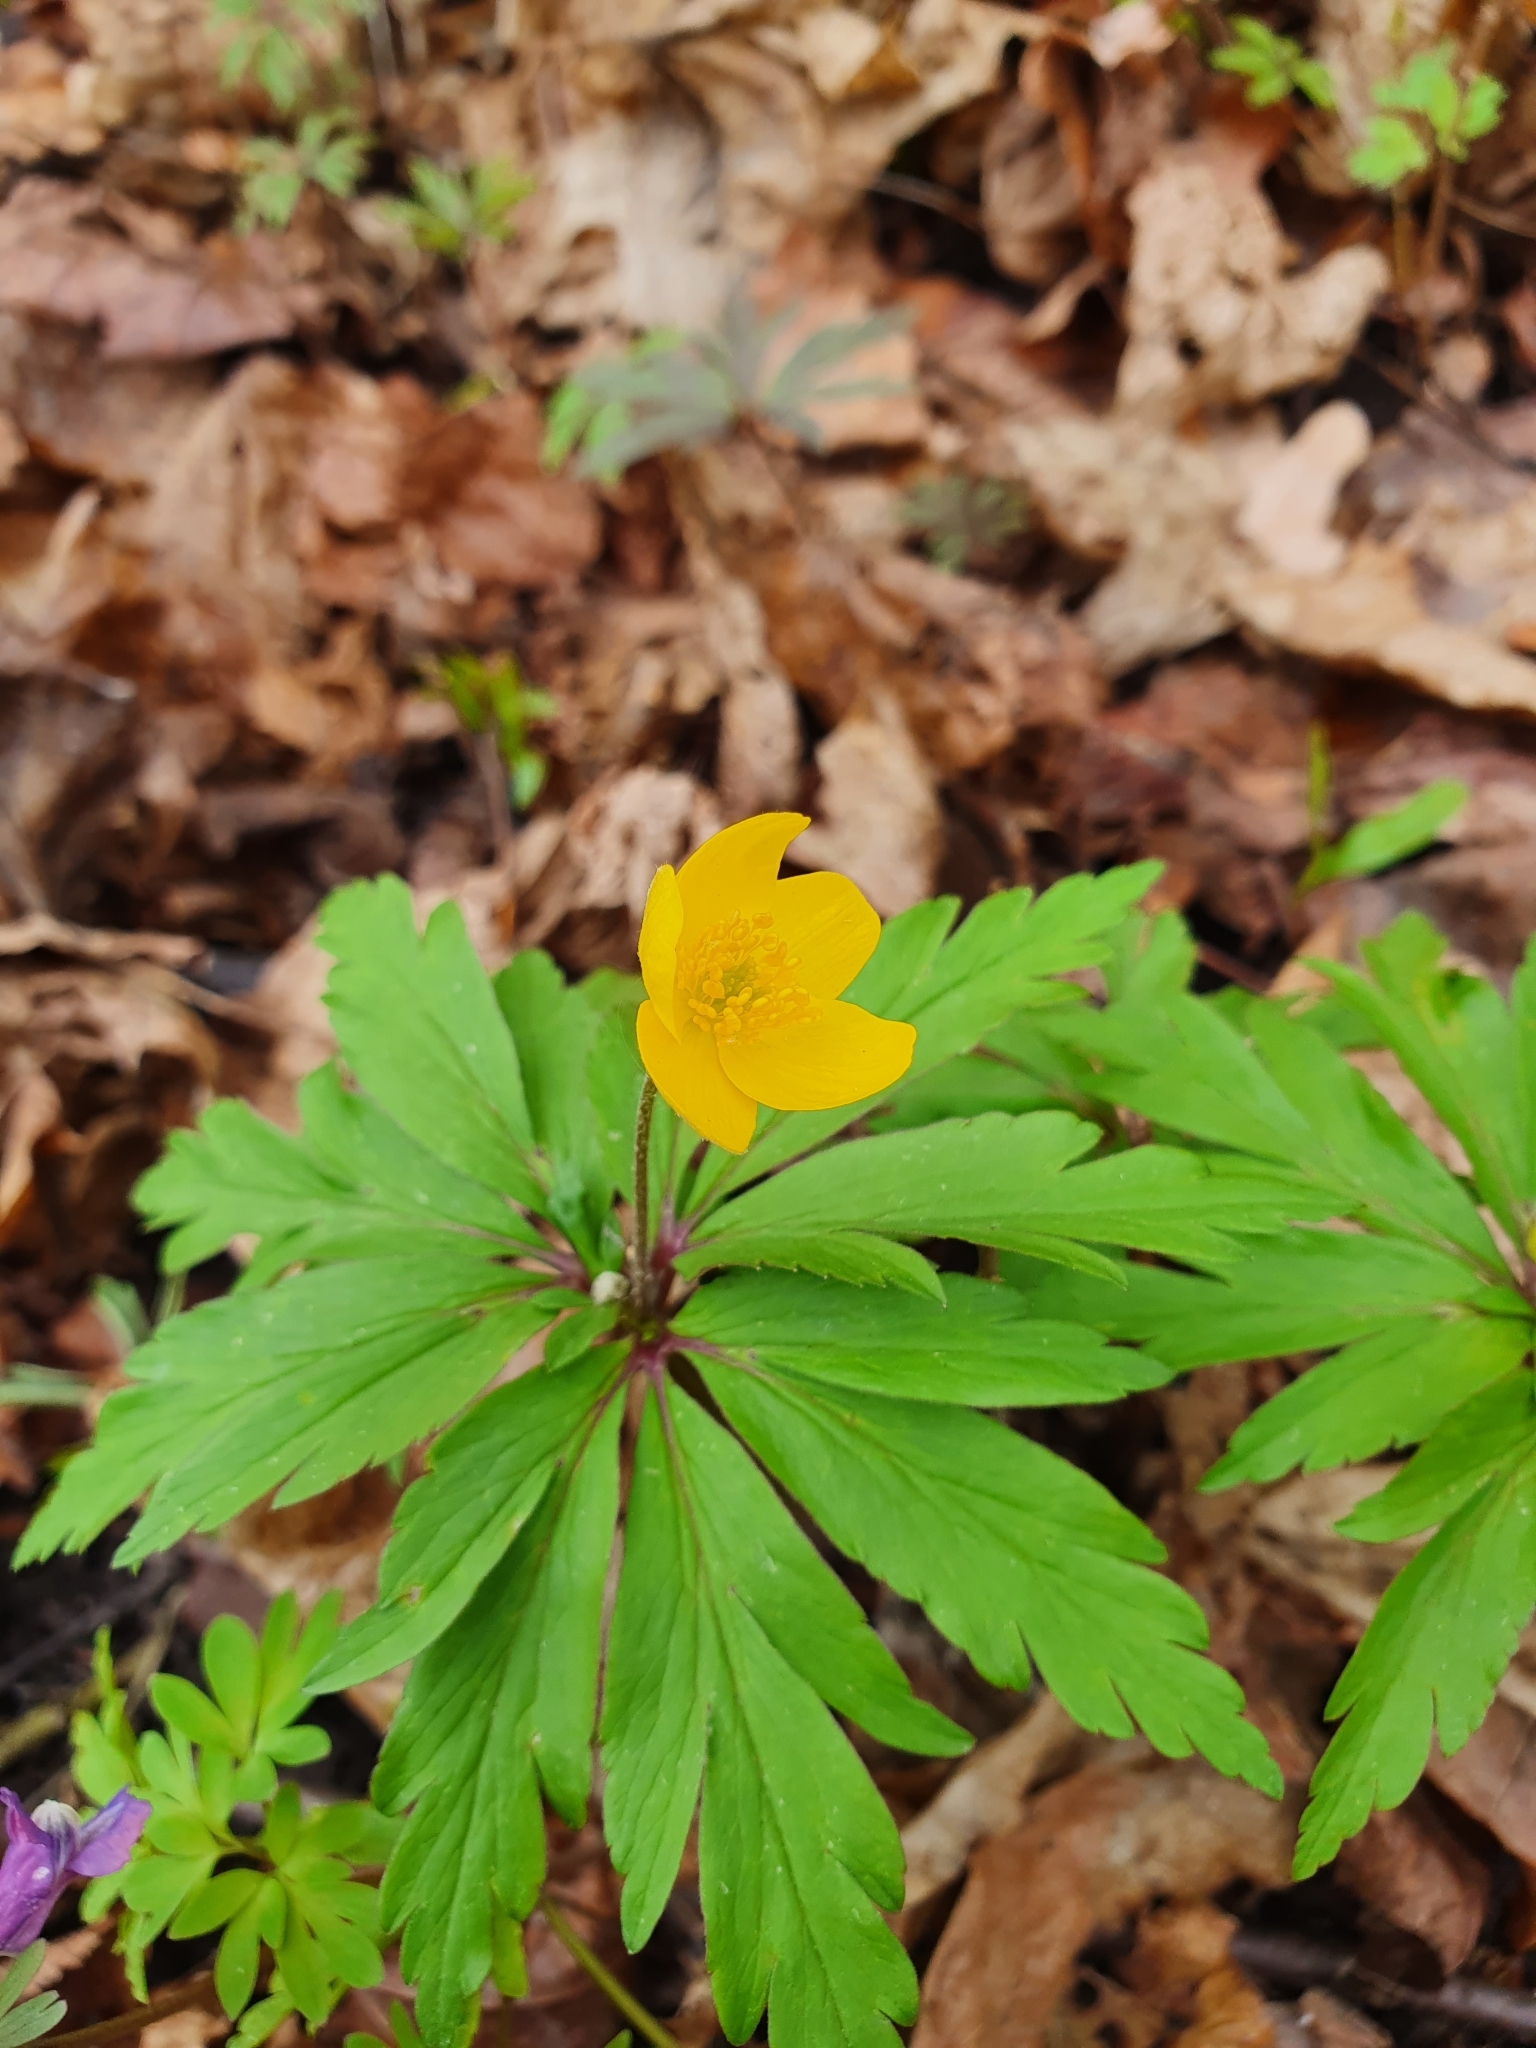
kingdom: Plantae
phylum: Tracheophyta
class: Magnoliopsida
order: Ranunculales
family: Ranunculaceae
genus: Anemone
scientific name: Anemone ranunculoides
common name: Yellow anemone
